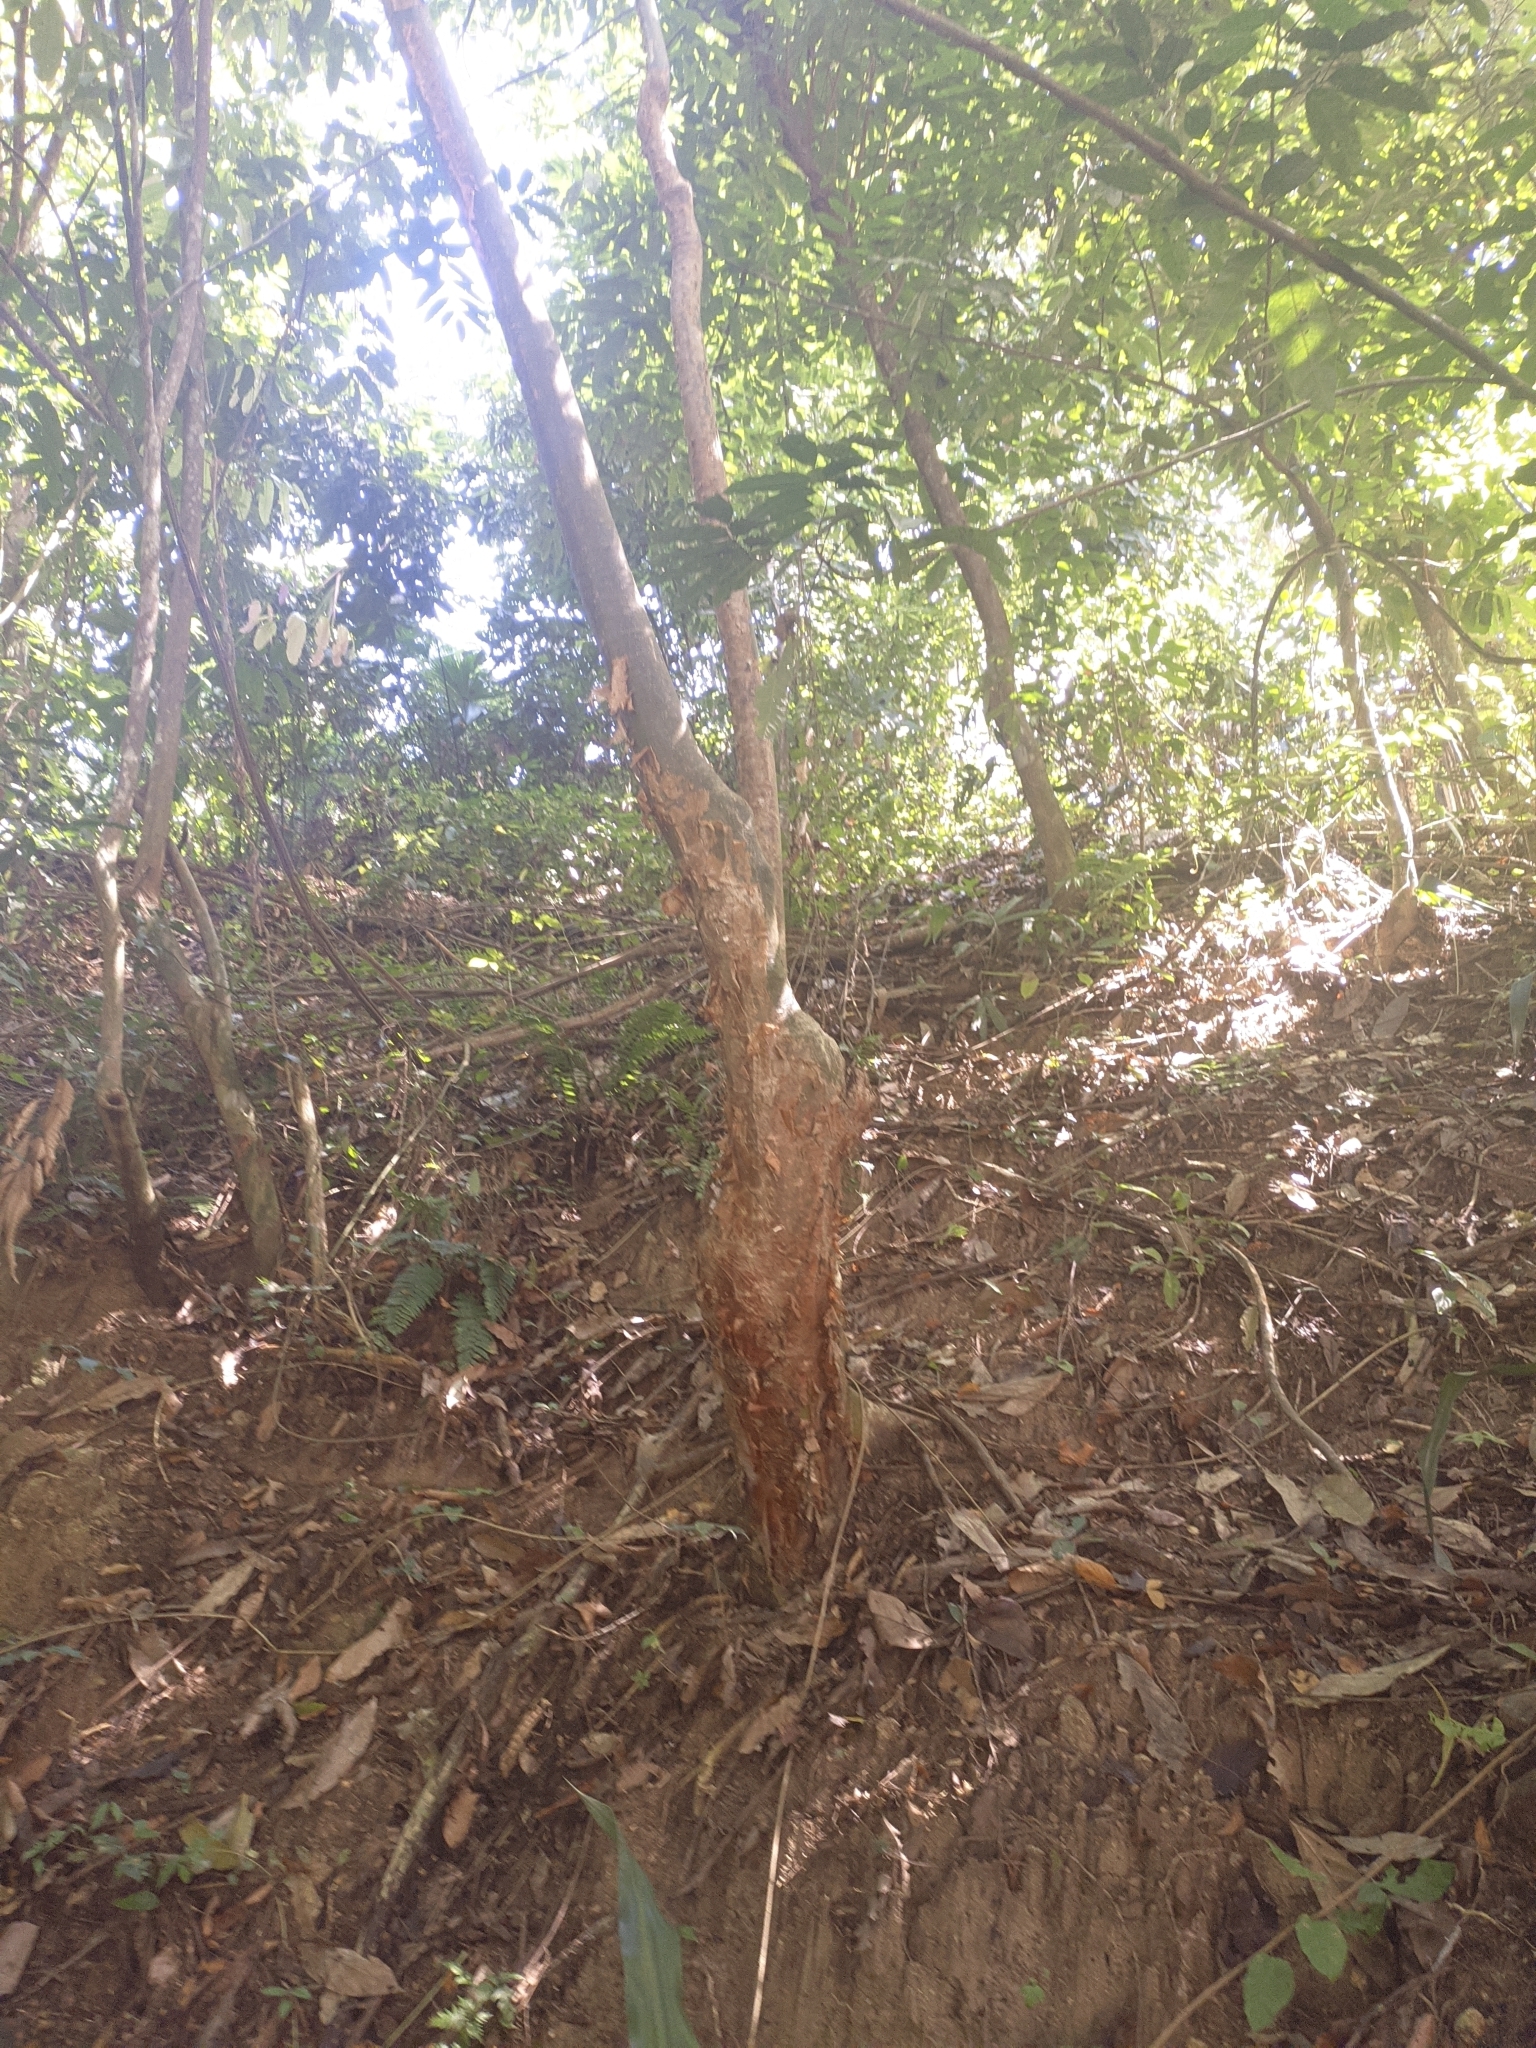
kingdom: Plantae
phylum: Tracheophyta
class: Magnoliopsida
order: Sapindales
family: Burseraceae
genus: Bursera
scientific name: Bursera simaruba
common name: Turpentine tree
